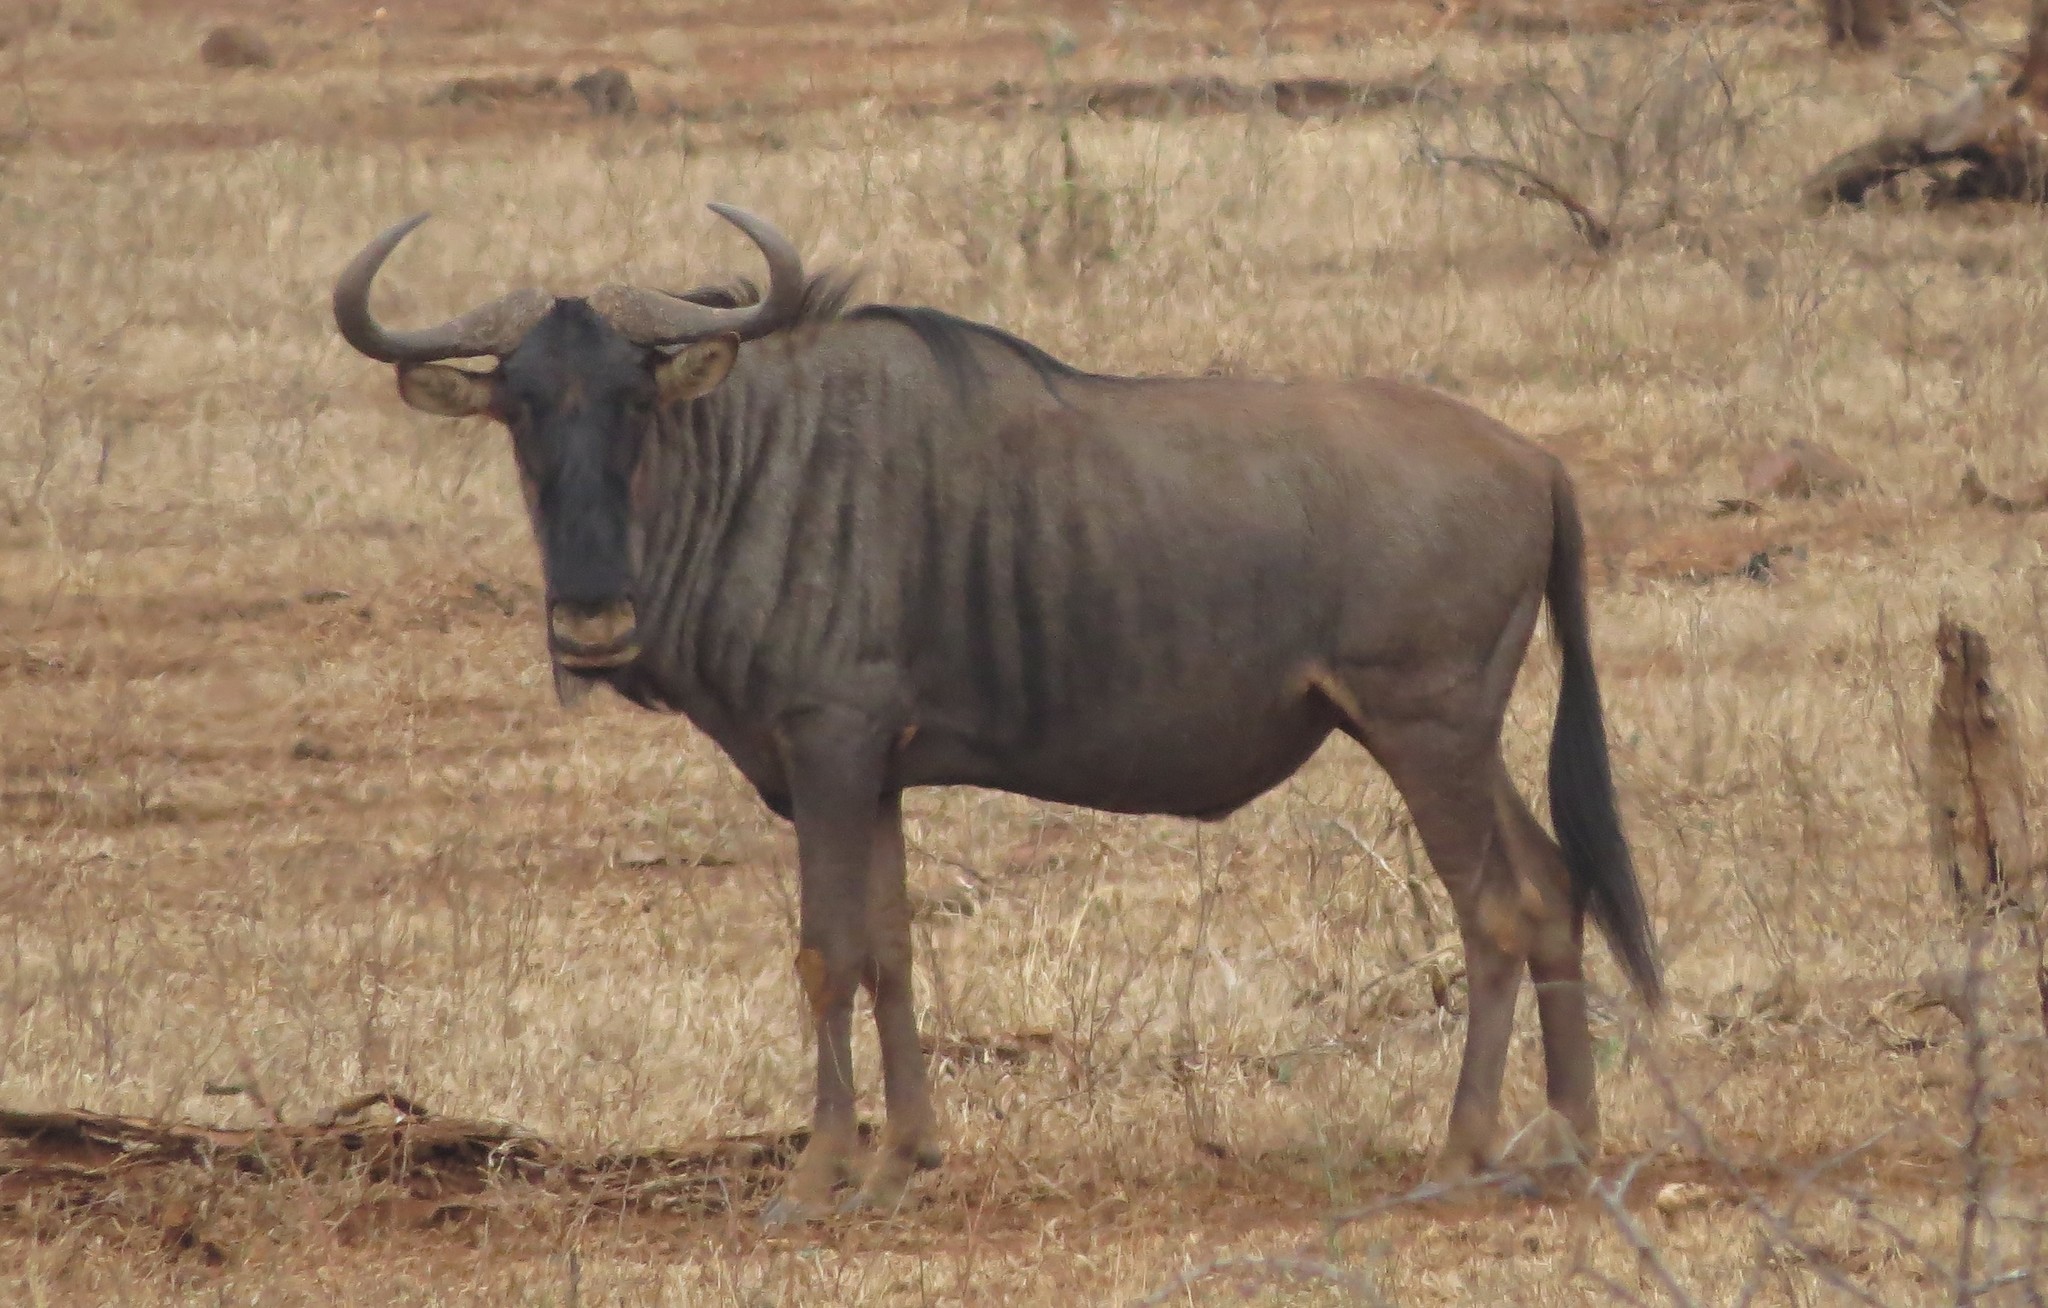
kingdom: Animalia
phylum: Chordata
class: Mammalia
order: Artiodactyla
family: Bovidae
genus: Connochaetes
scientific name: Connochaetes taurinus
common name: Blue wildebeest
